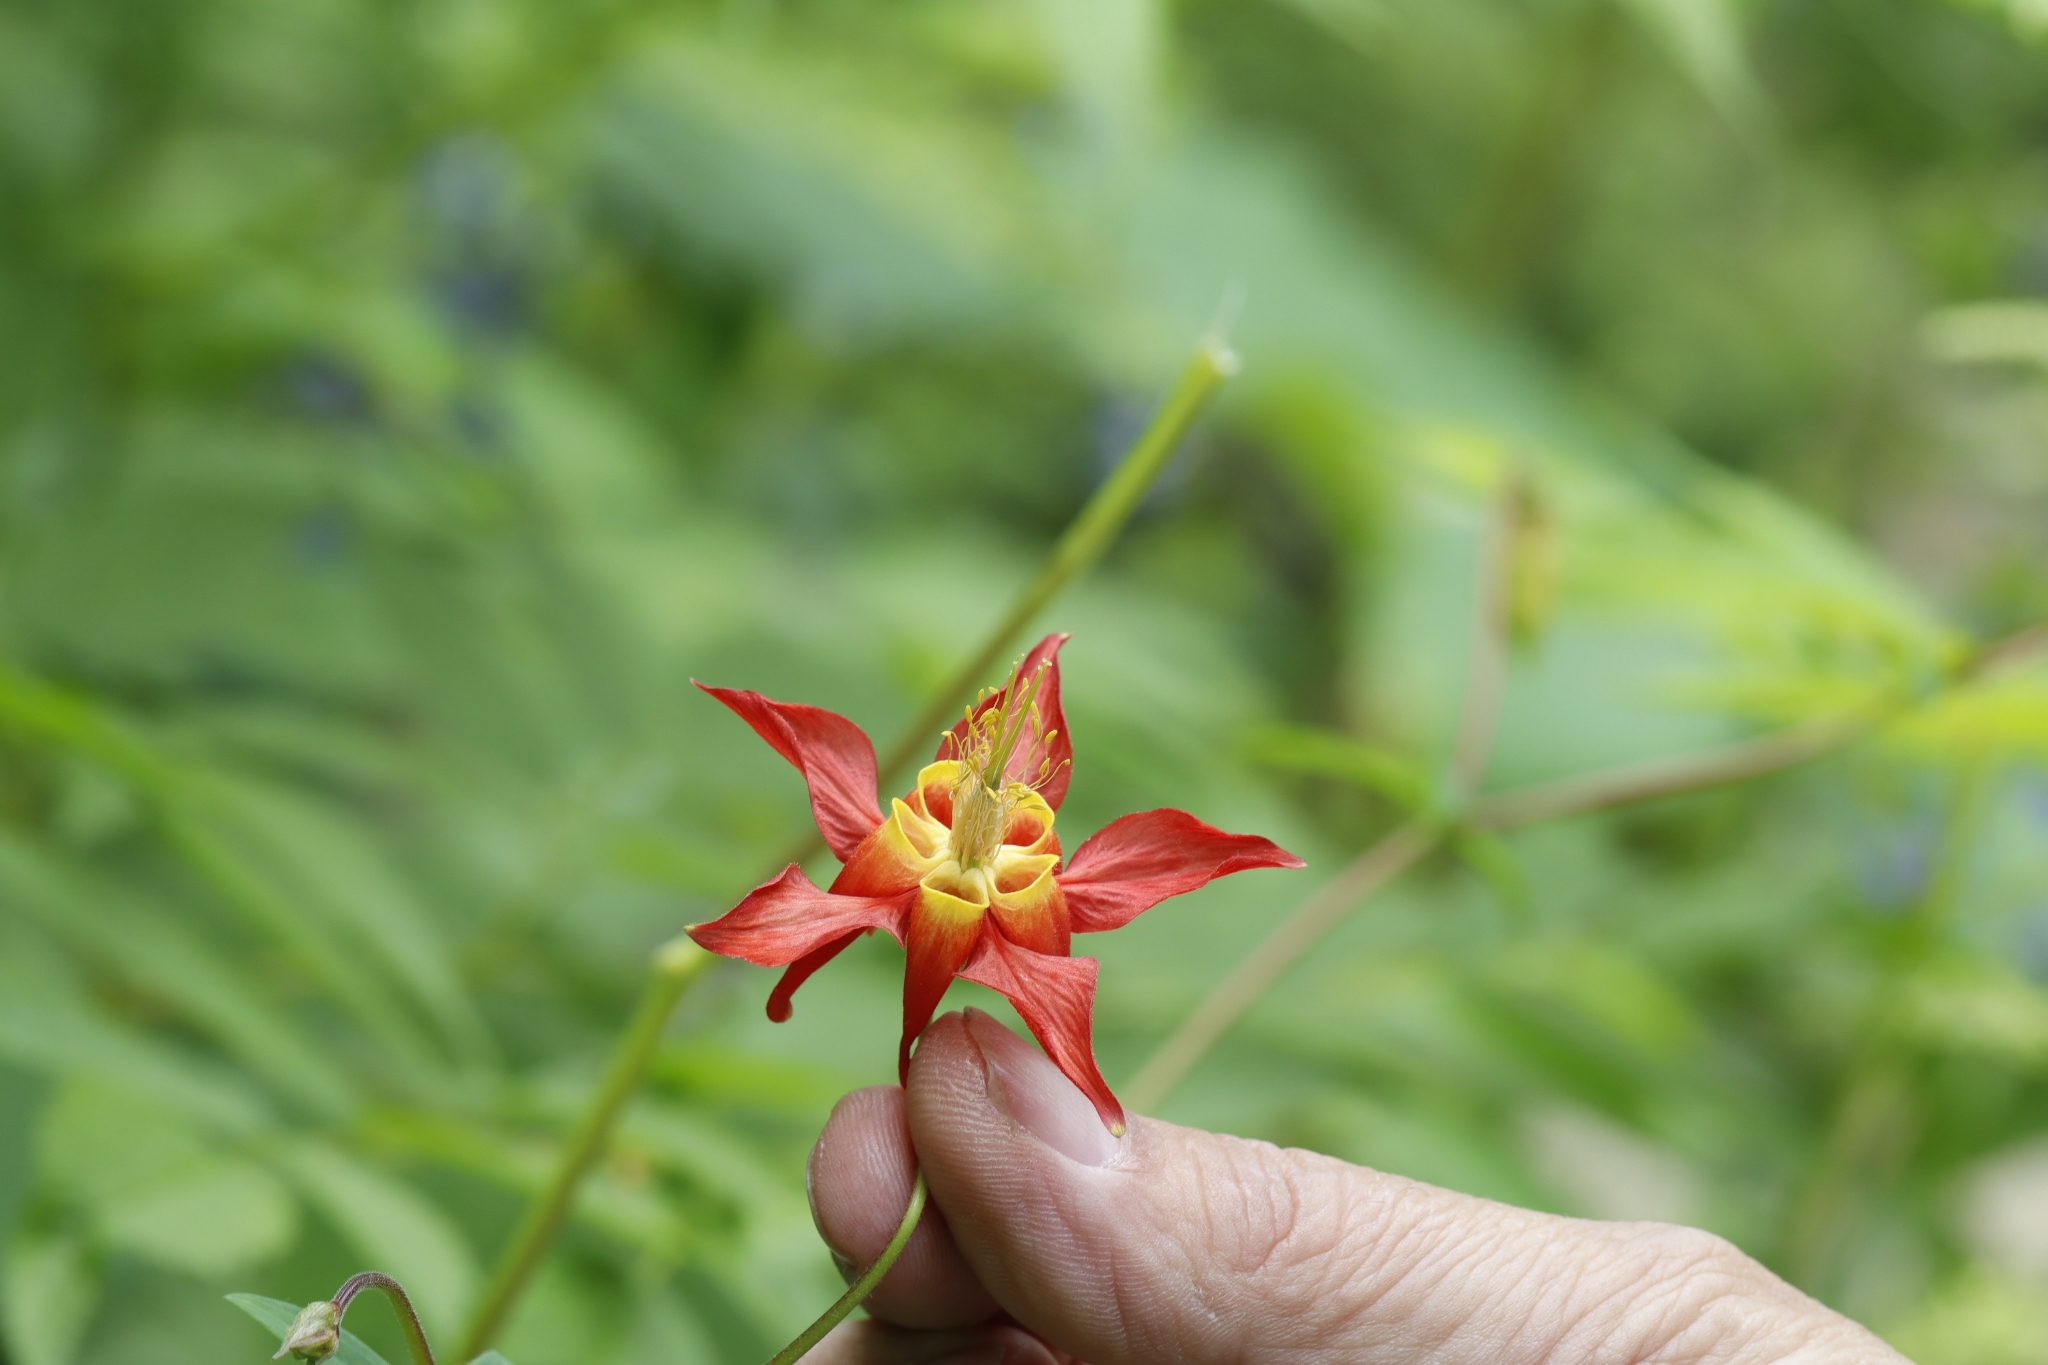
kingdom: Plantae
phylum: Tracheophyta
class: Magnoliopsida
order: Ranunculales
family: Ranunculaceae
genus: Aquilegia
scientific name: Aquilegia formosa
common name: Sitka columbine
